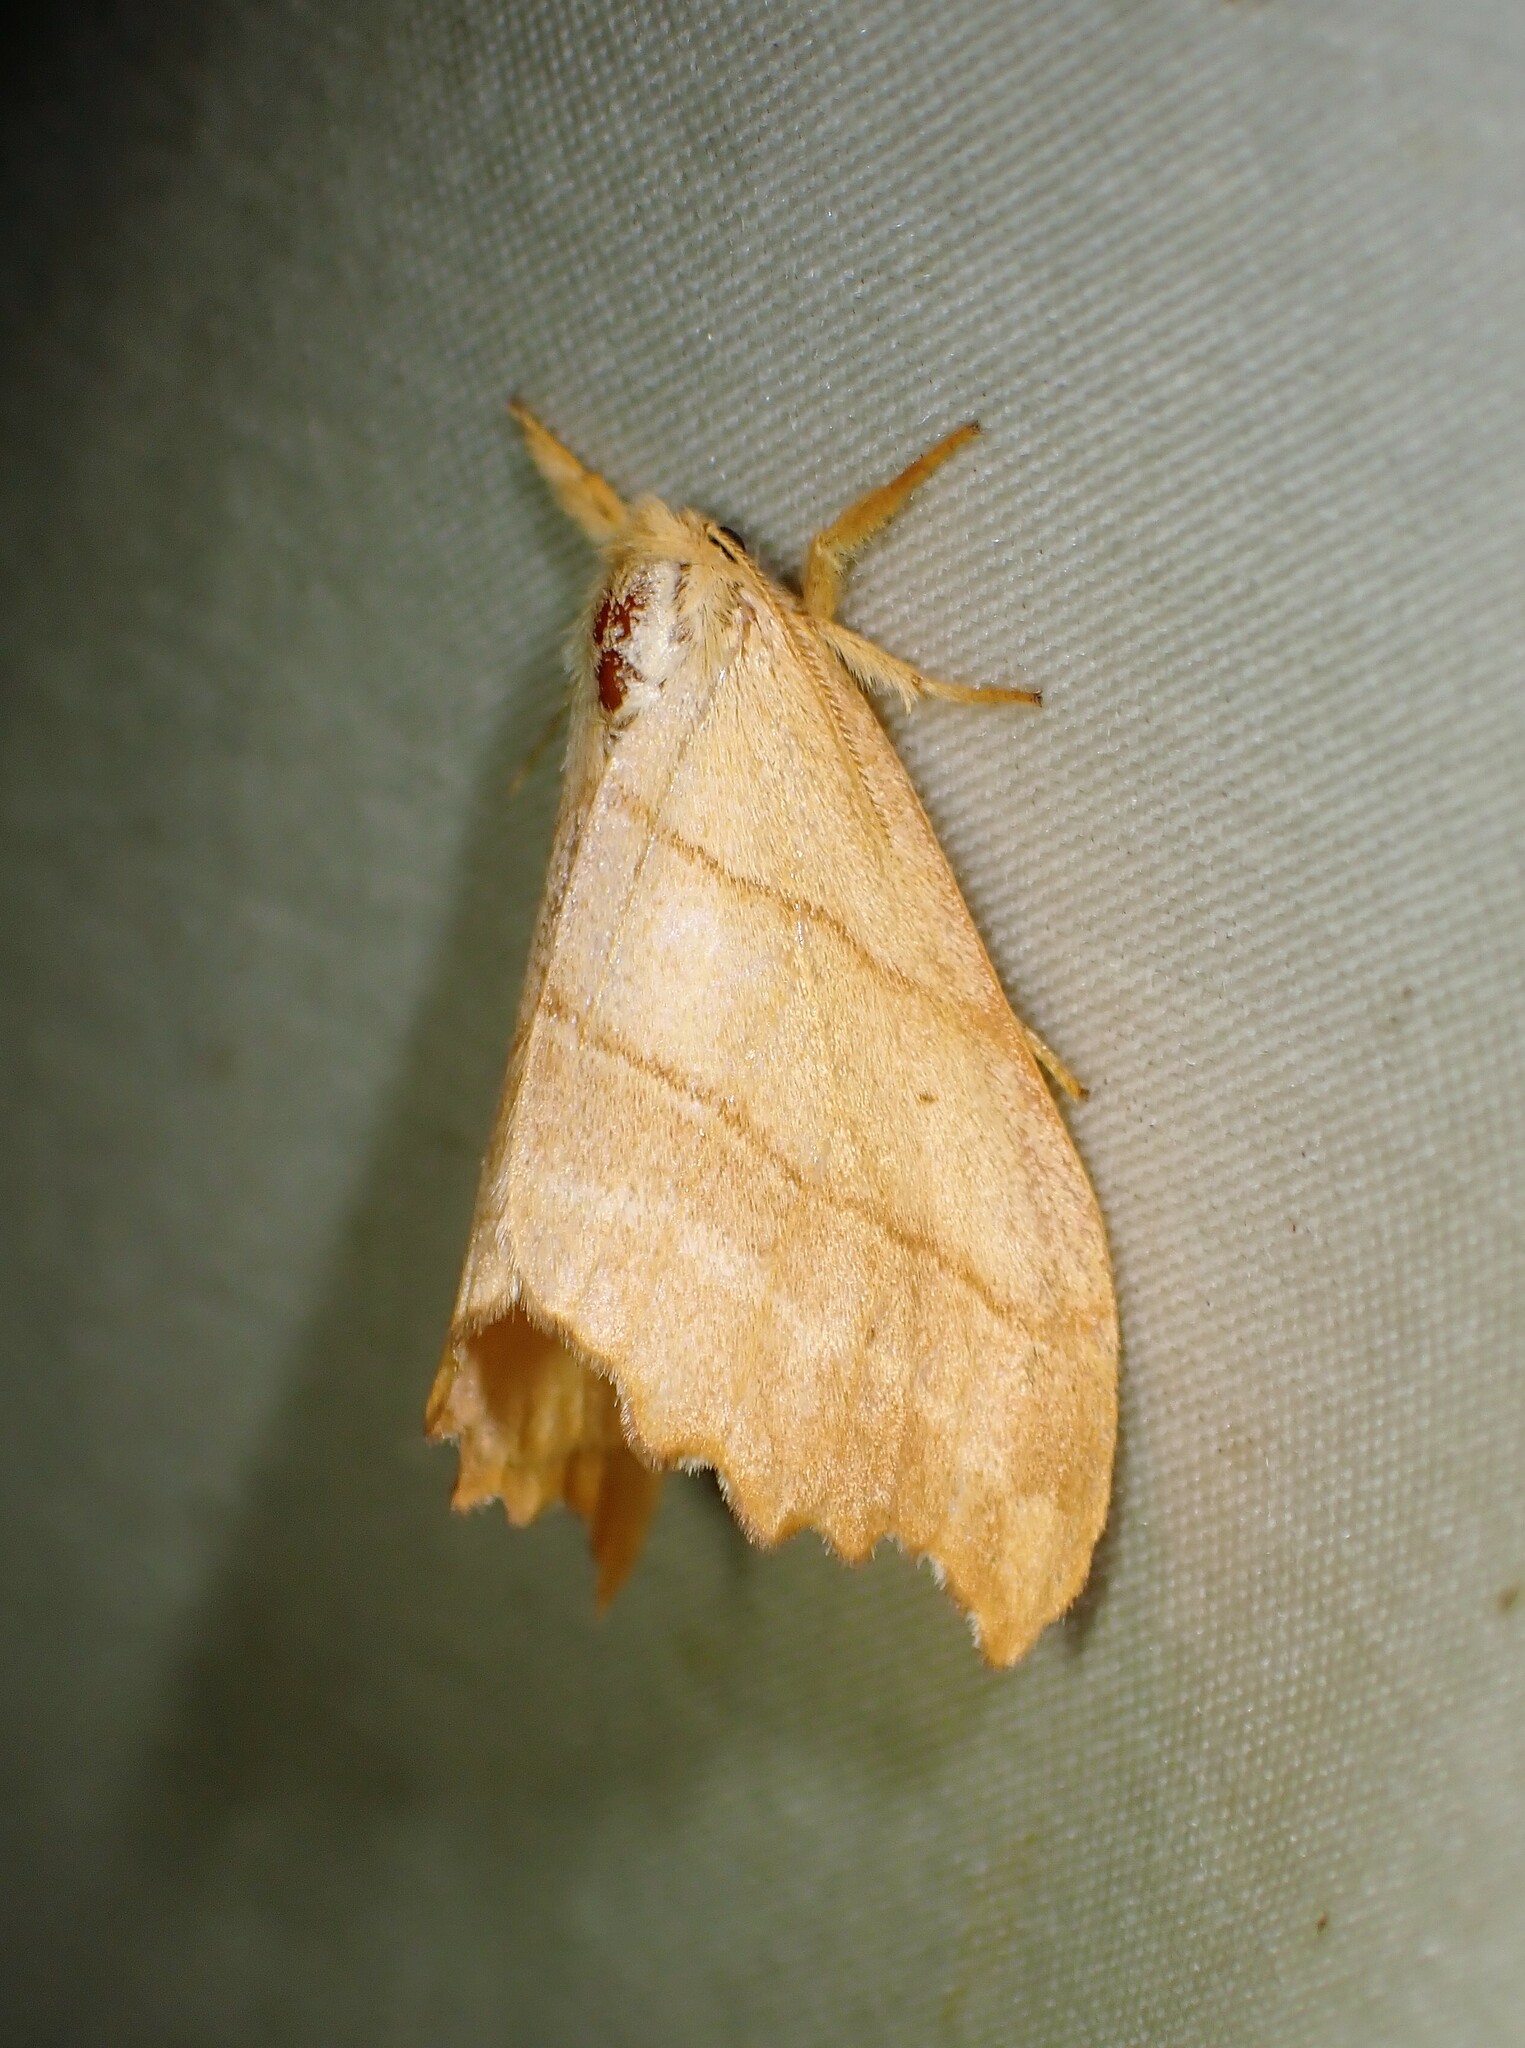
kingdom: Animalia
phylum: Arthropoda
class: Insecta
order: Lepidoptera
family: Drepanidae
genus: Falcaria
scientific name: Falcaria bilineata
